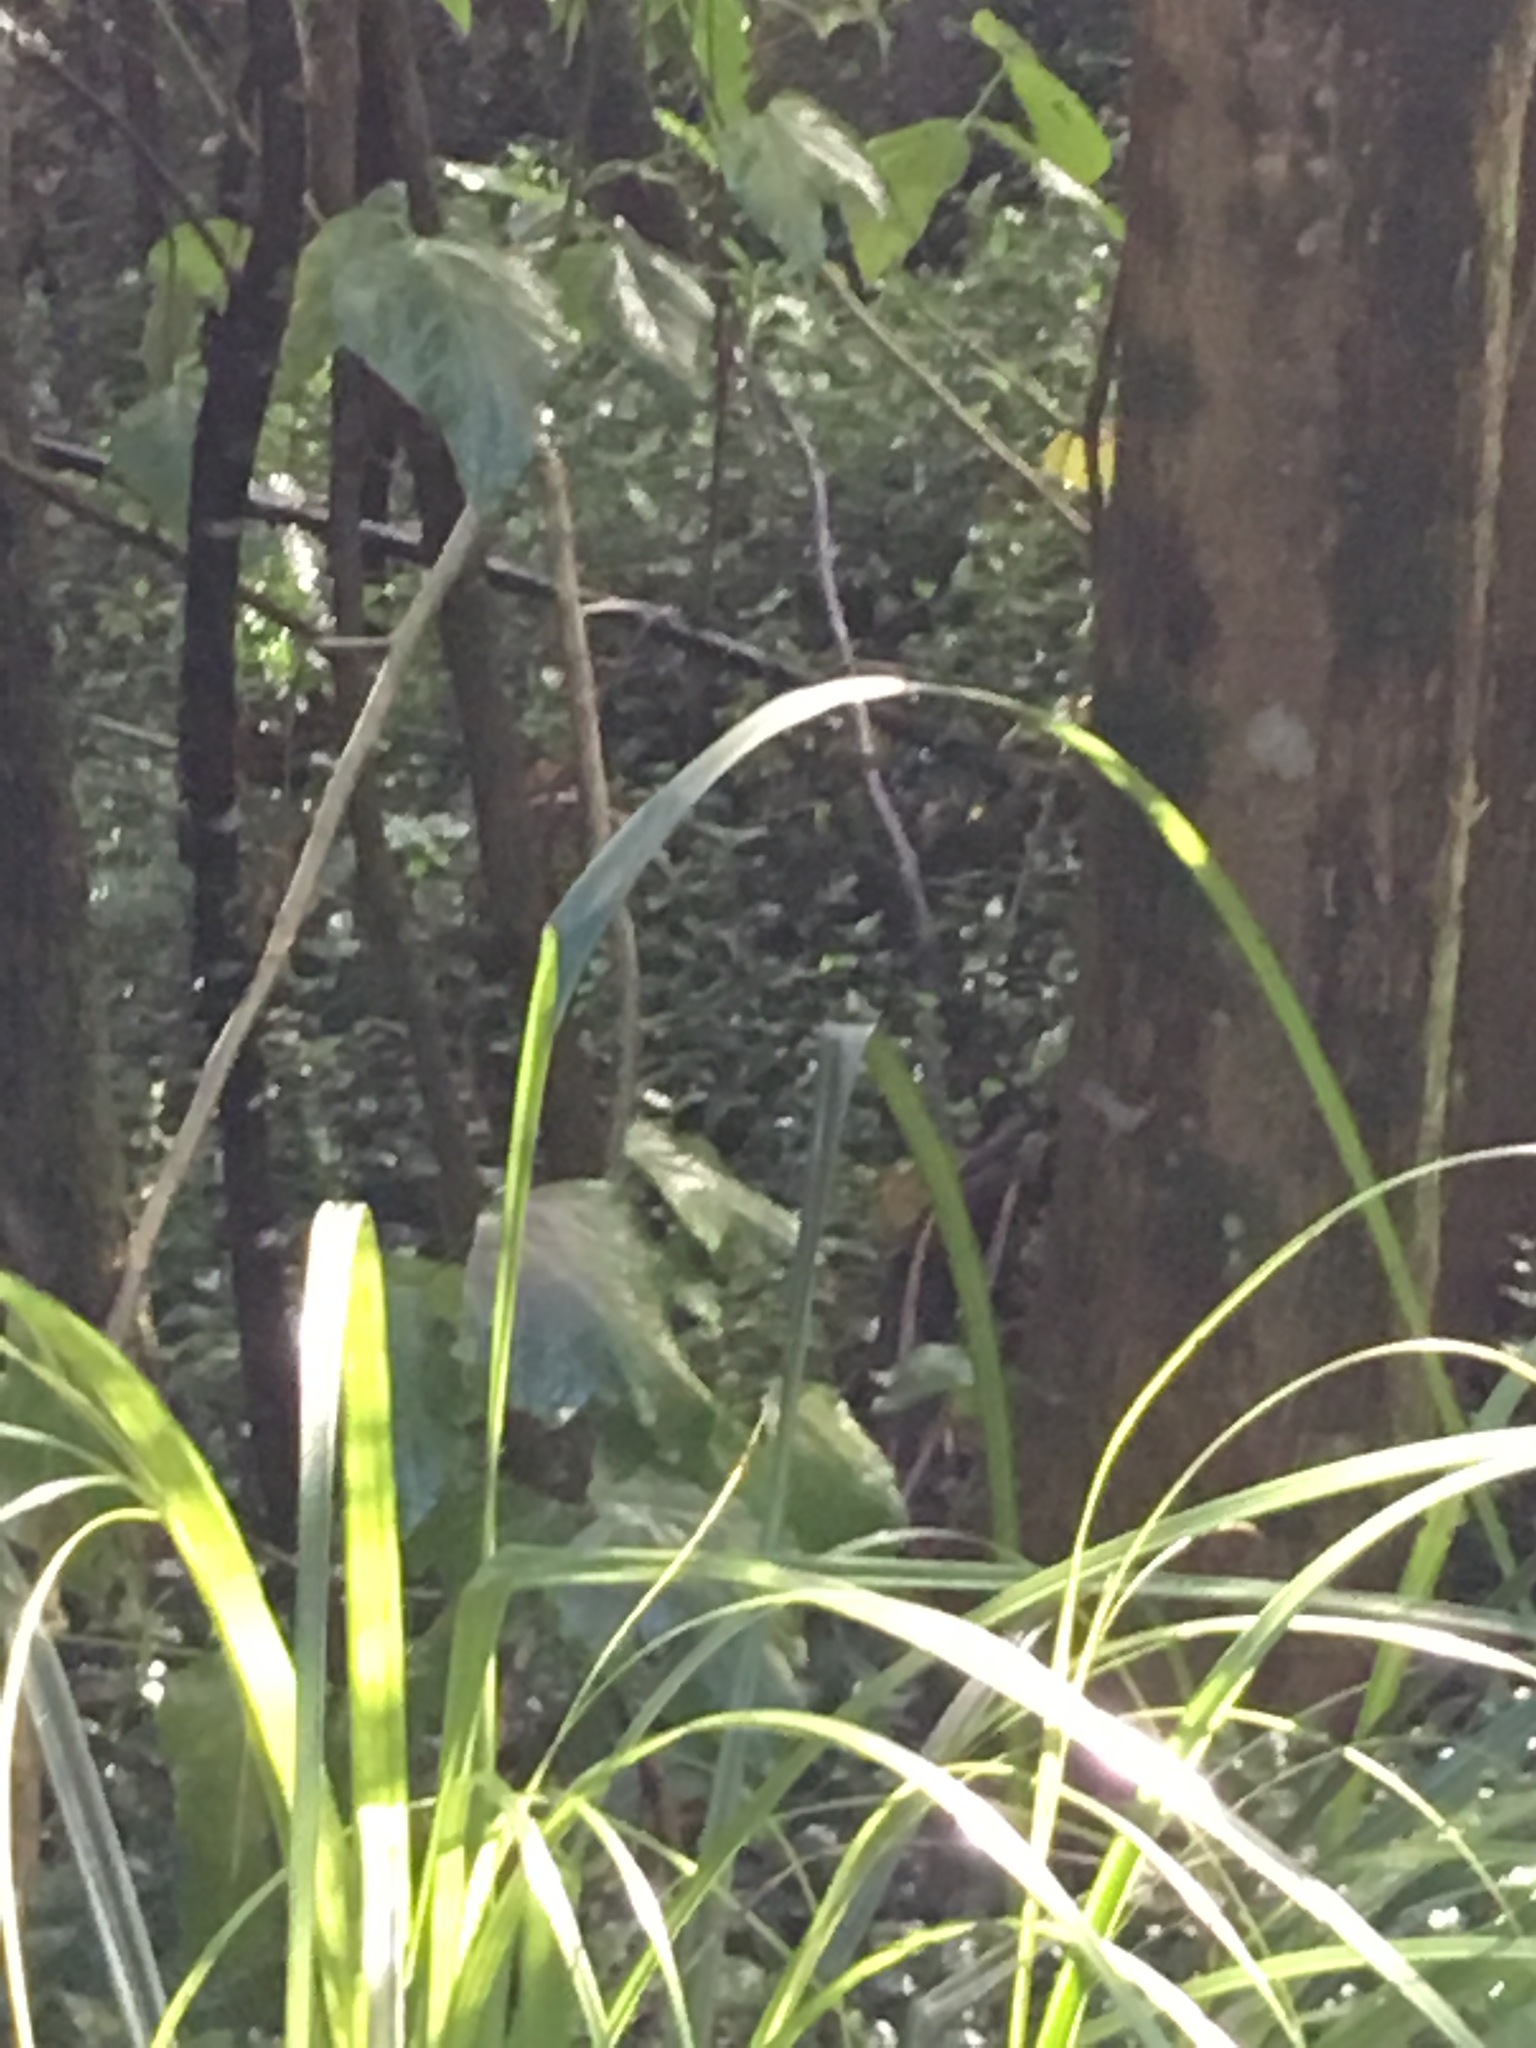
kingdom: Plantae
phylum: Tracheophyta
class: Liliopsida
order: Commelinales
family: Commelinaceae
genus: Tradescantia
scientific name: Tradescantia fluminensis
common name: Wandering-jew
